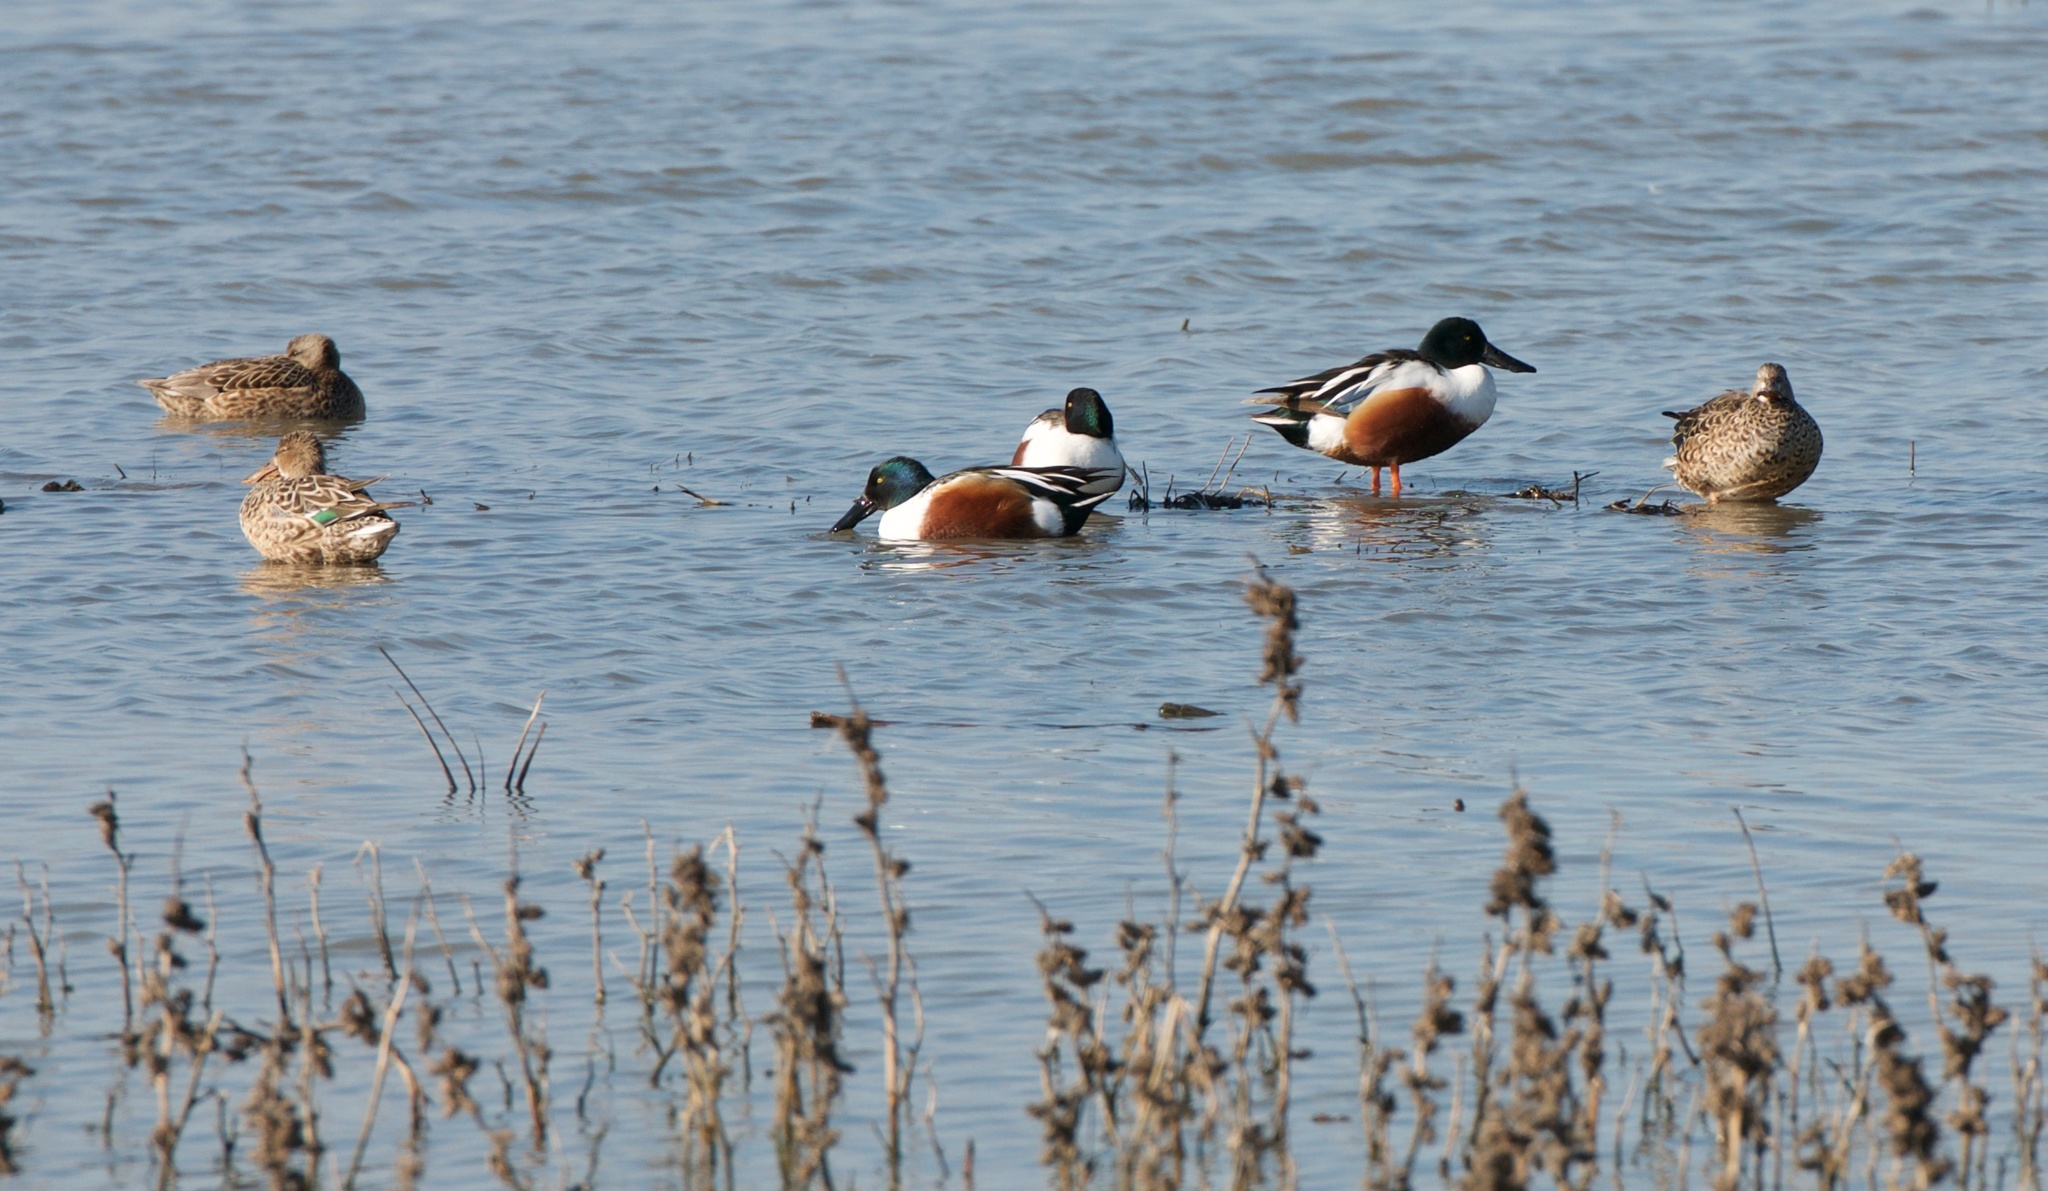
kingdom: Animalia
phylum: Chordata
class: Aves
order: Anseriformes
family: Anatidae
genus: Spatula
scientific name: Spatula clypeata
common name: Northern shoveler
